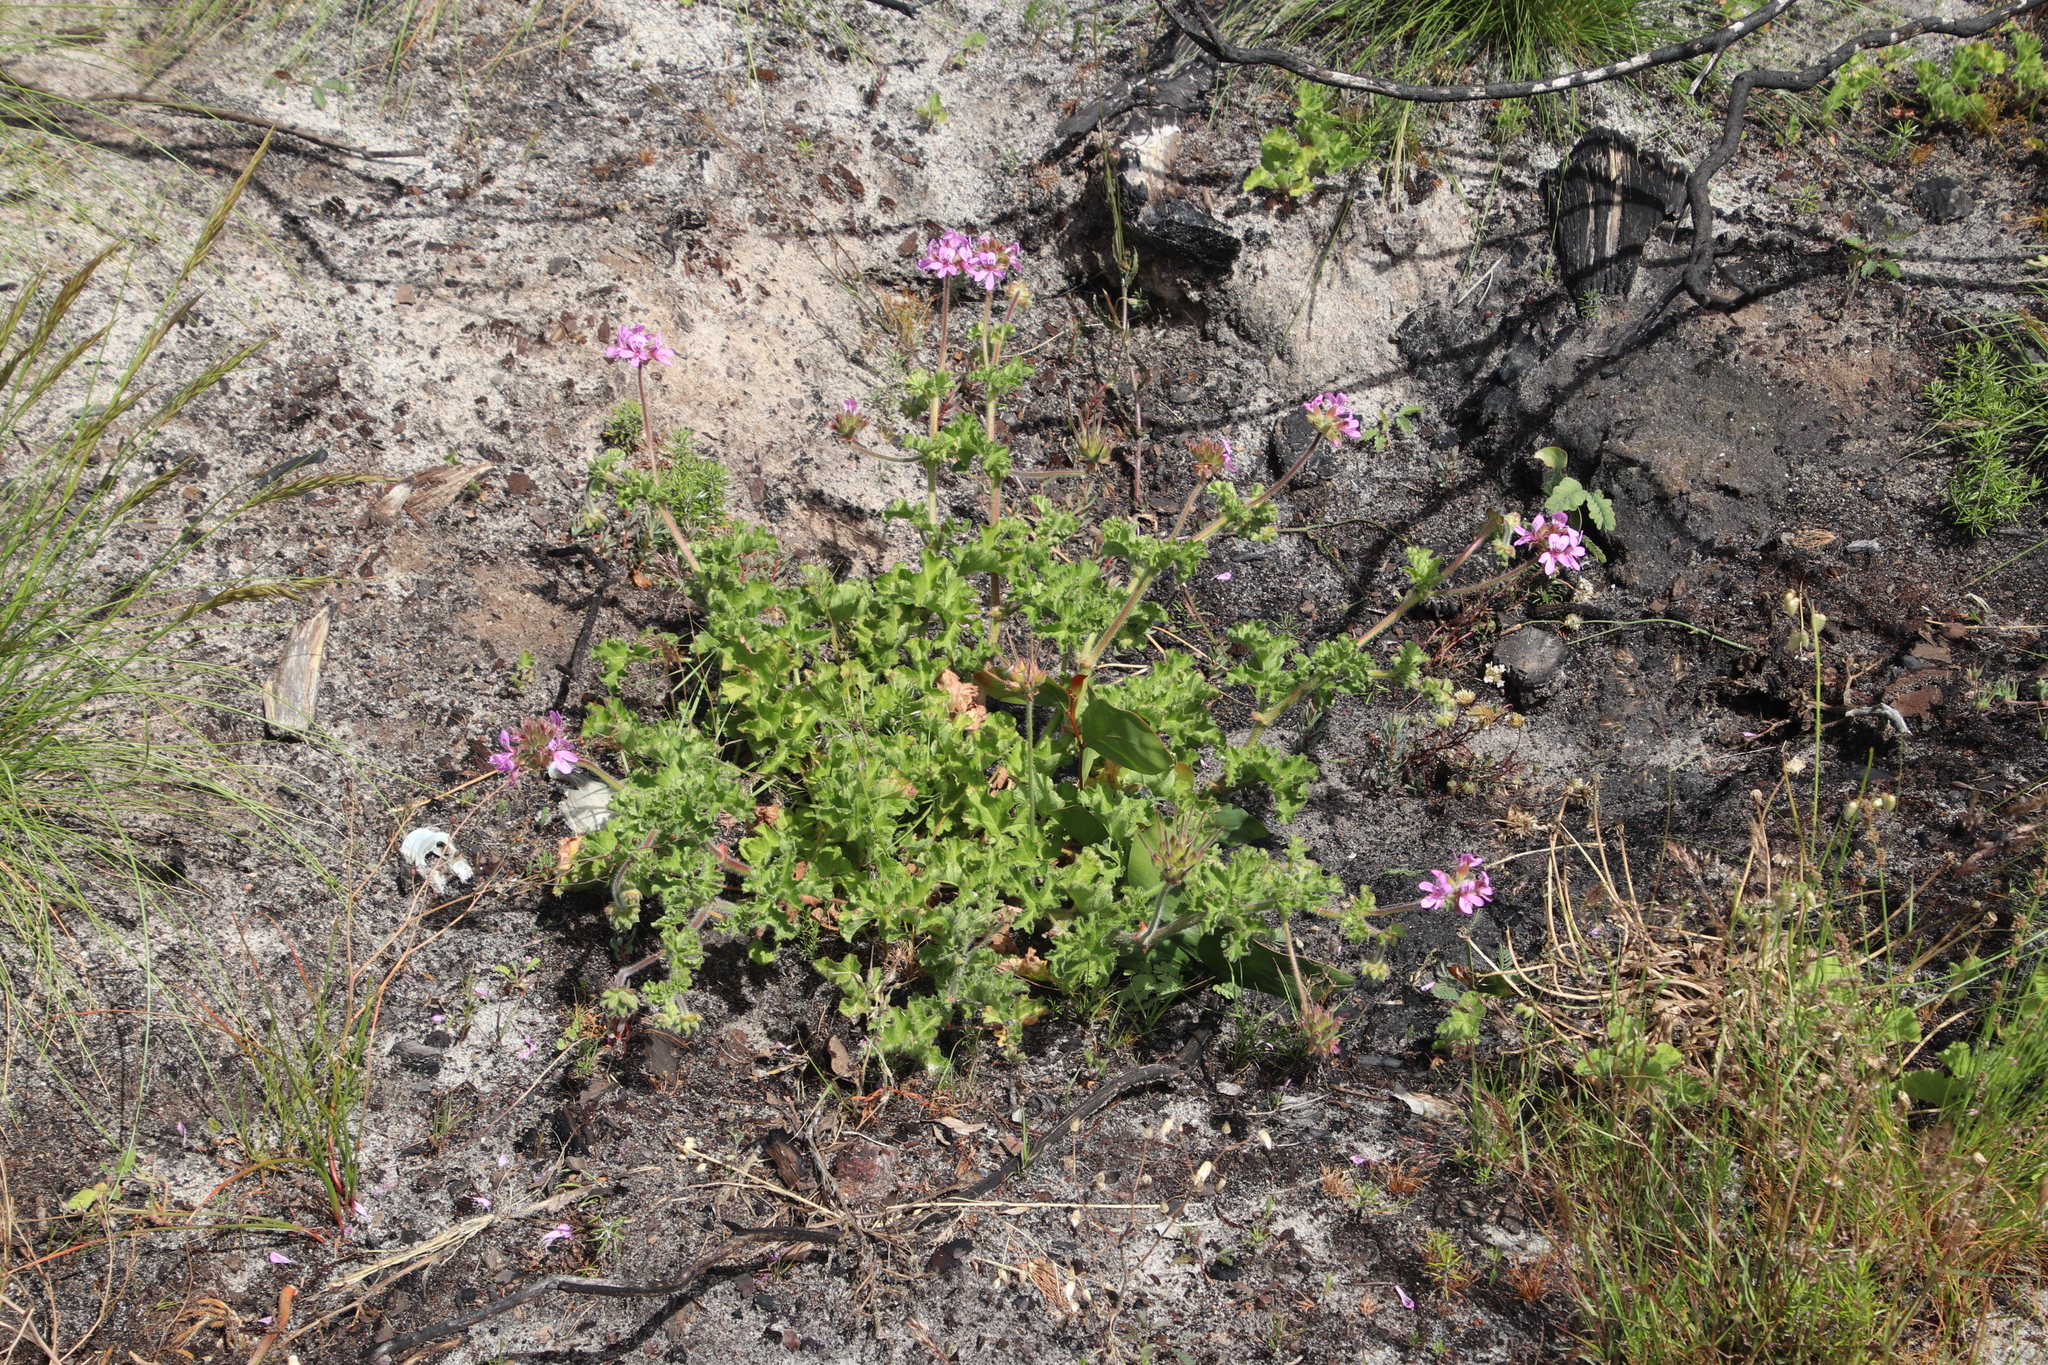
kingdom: Plantae
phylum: Tracheophyta
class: Magnoliopsida
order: Geraniales
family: Geraniaceae
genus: Pelargonium
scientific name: Pelargonium capitatum
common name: Rose scented geranium
